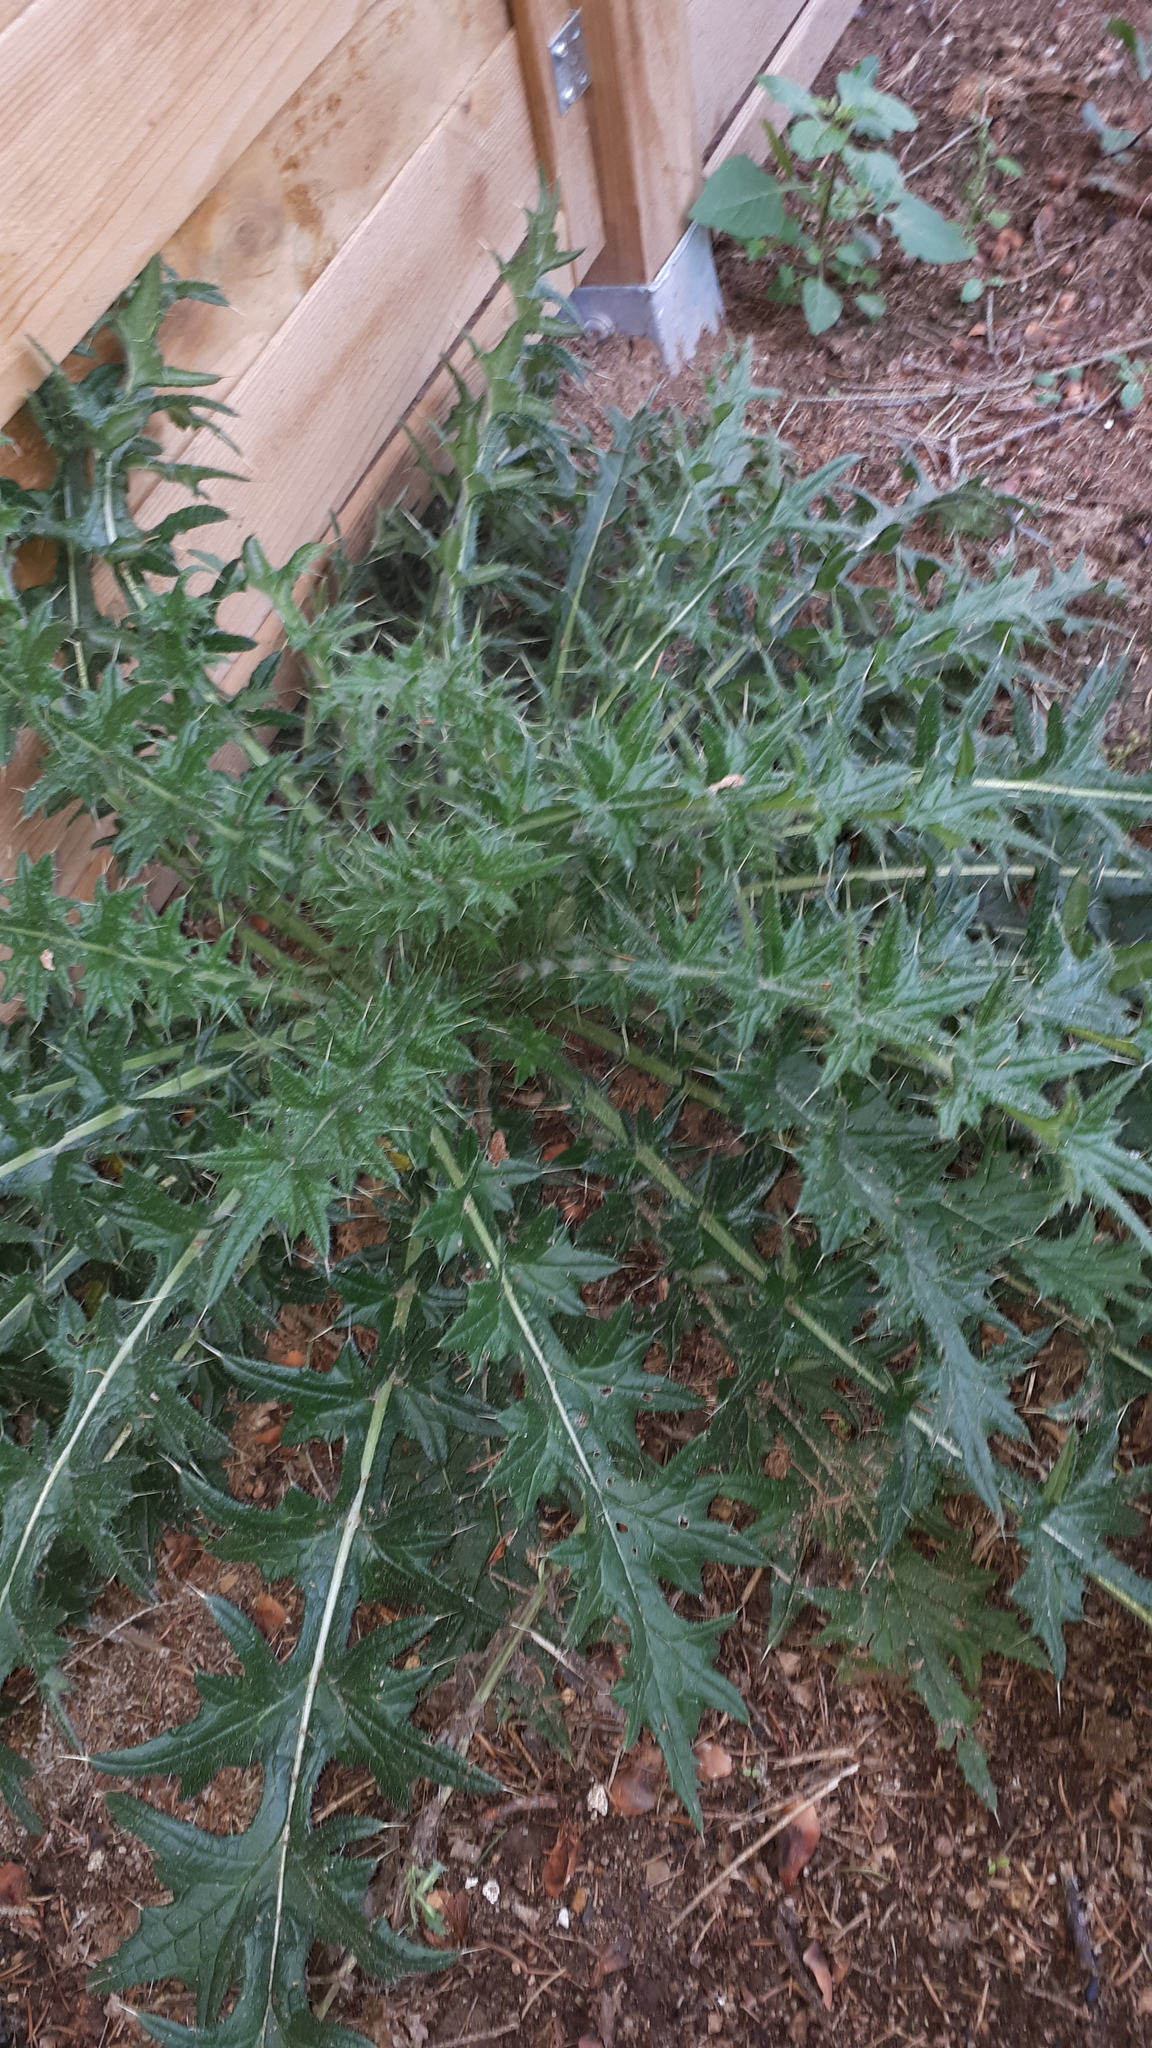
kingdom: Plantae
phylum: Tracheophyta
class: Magnoliopsida
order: Asterales
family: Asteraceae
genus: Cirsium
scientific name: Cirsium vulgare
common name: Bull thistle
